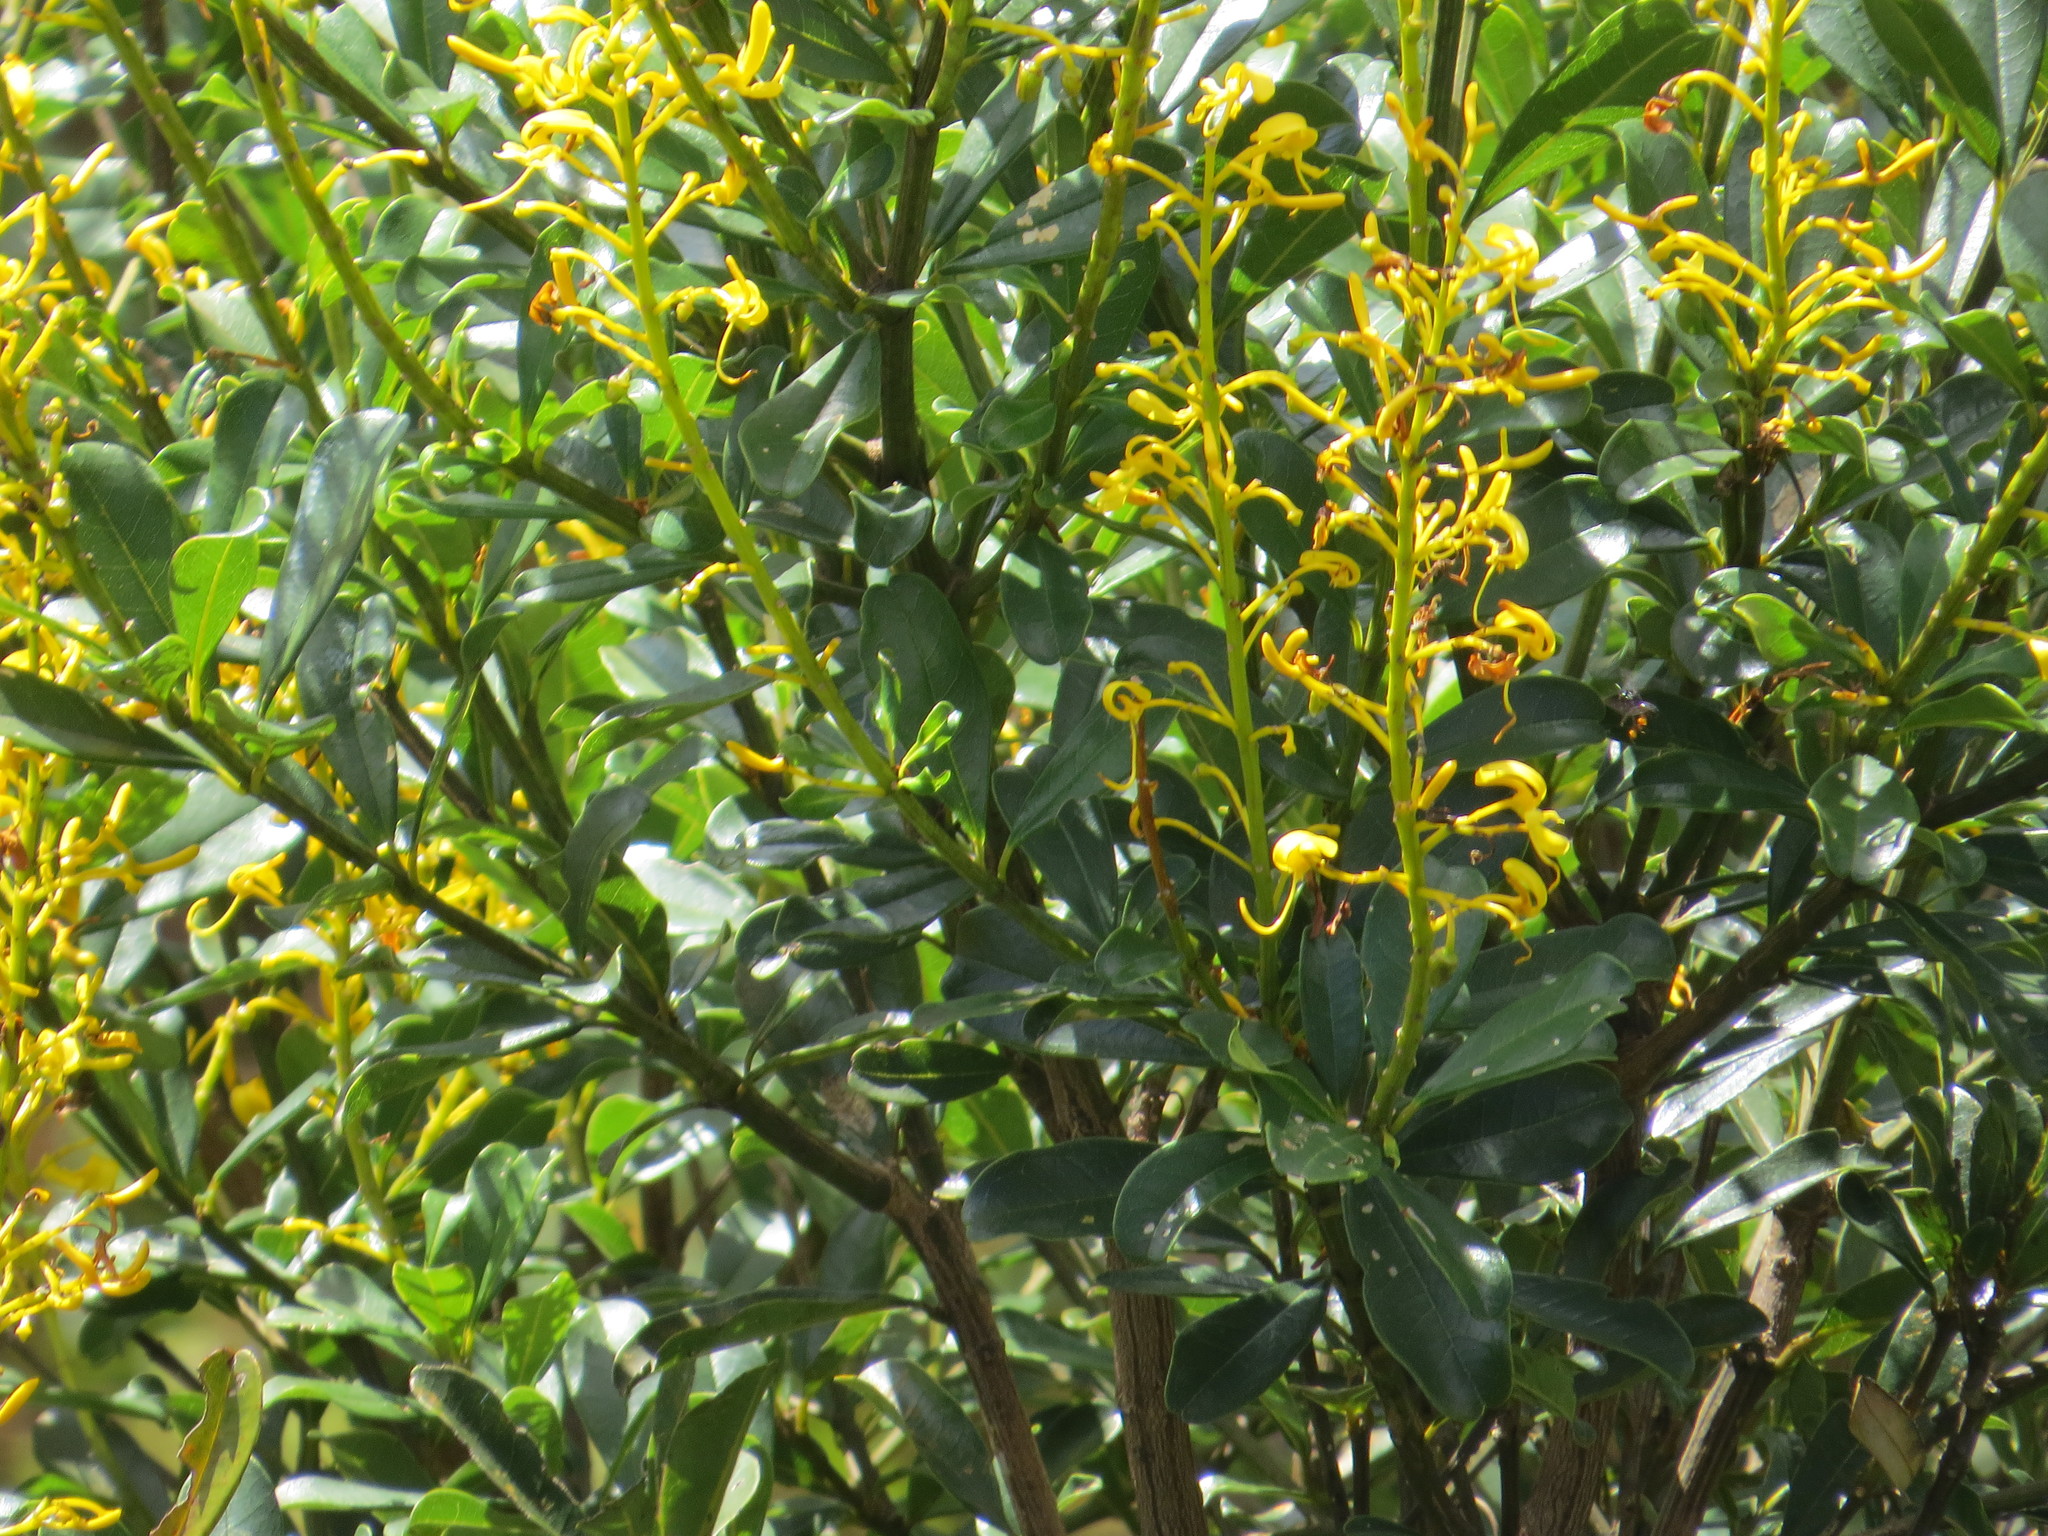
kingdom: Plantae
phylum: Tracheophyta
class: Magnoliopsida
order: Myrtales
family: Vochysiaceae
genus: Vochysia
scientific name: Vochysia tucanorum
